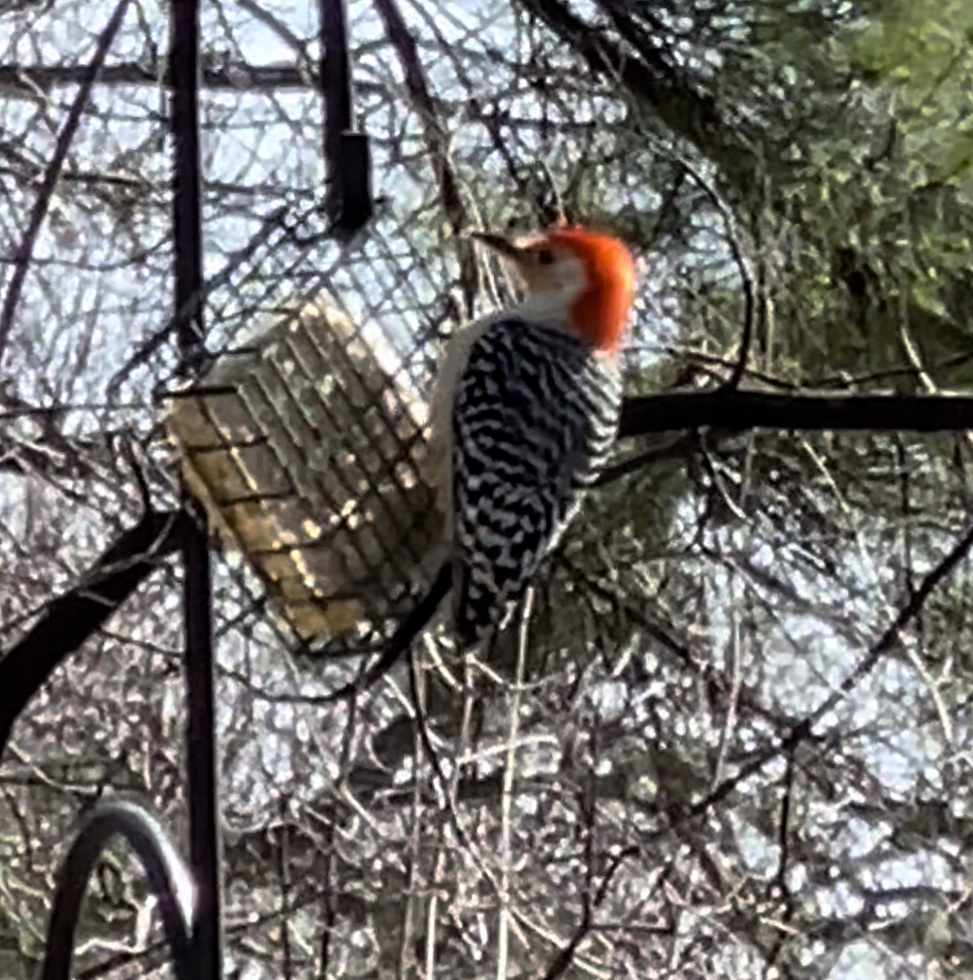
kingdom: Animalia
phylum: Chordata
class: Aves
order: Piciformes
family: Picidae
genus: Melanerpes
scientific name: Melanerpes carolinus
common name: Red-bellied woodpecker
